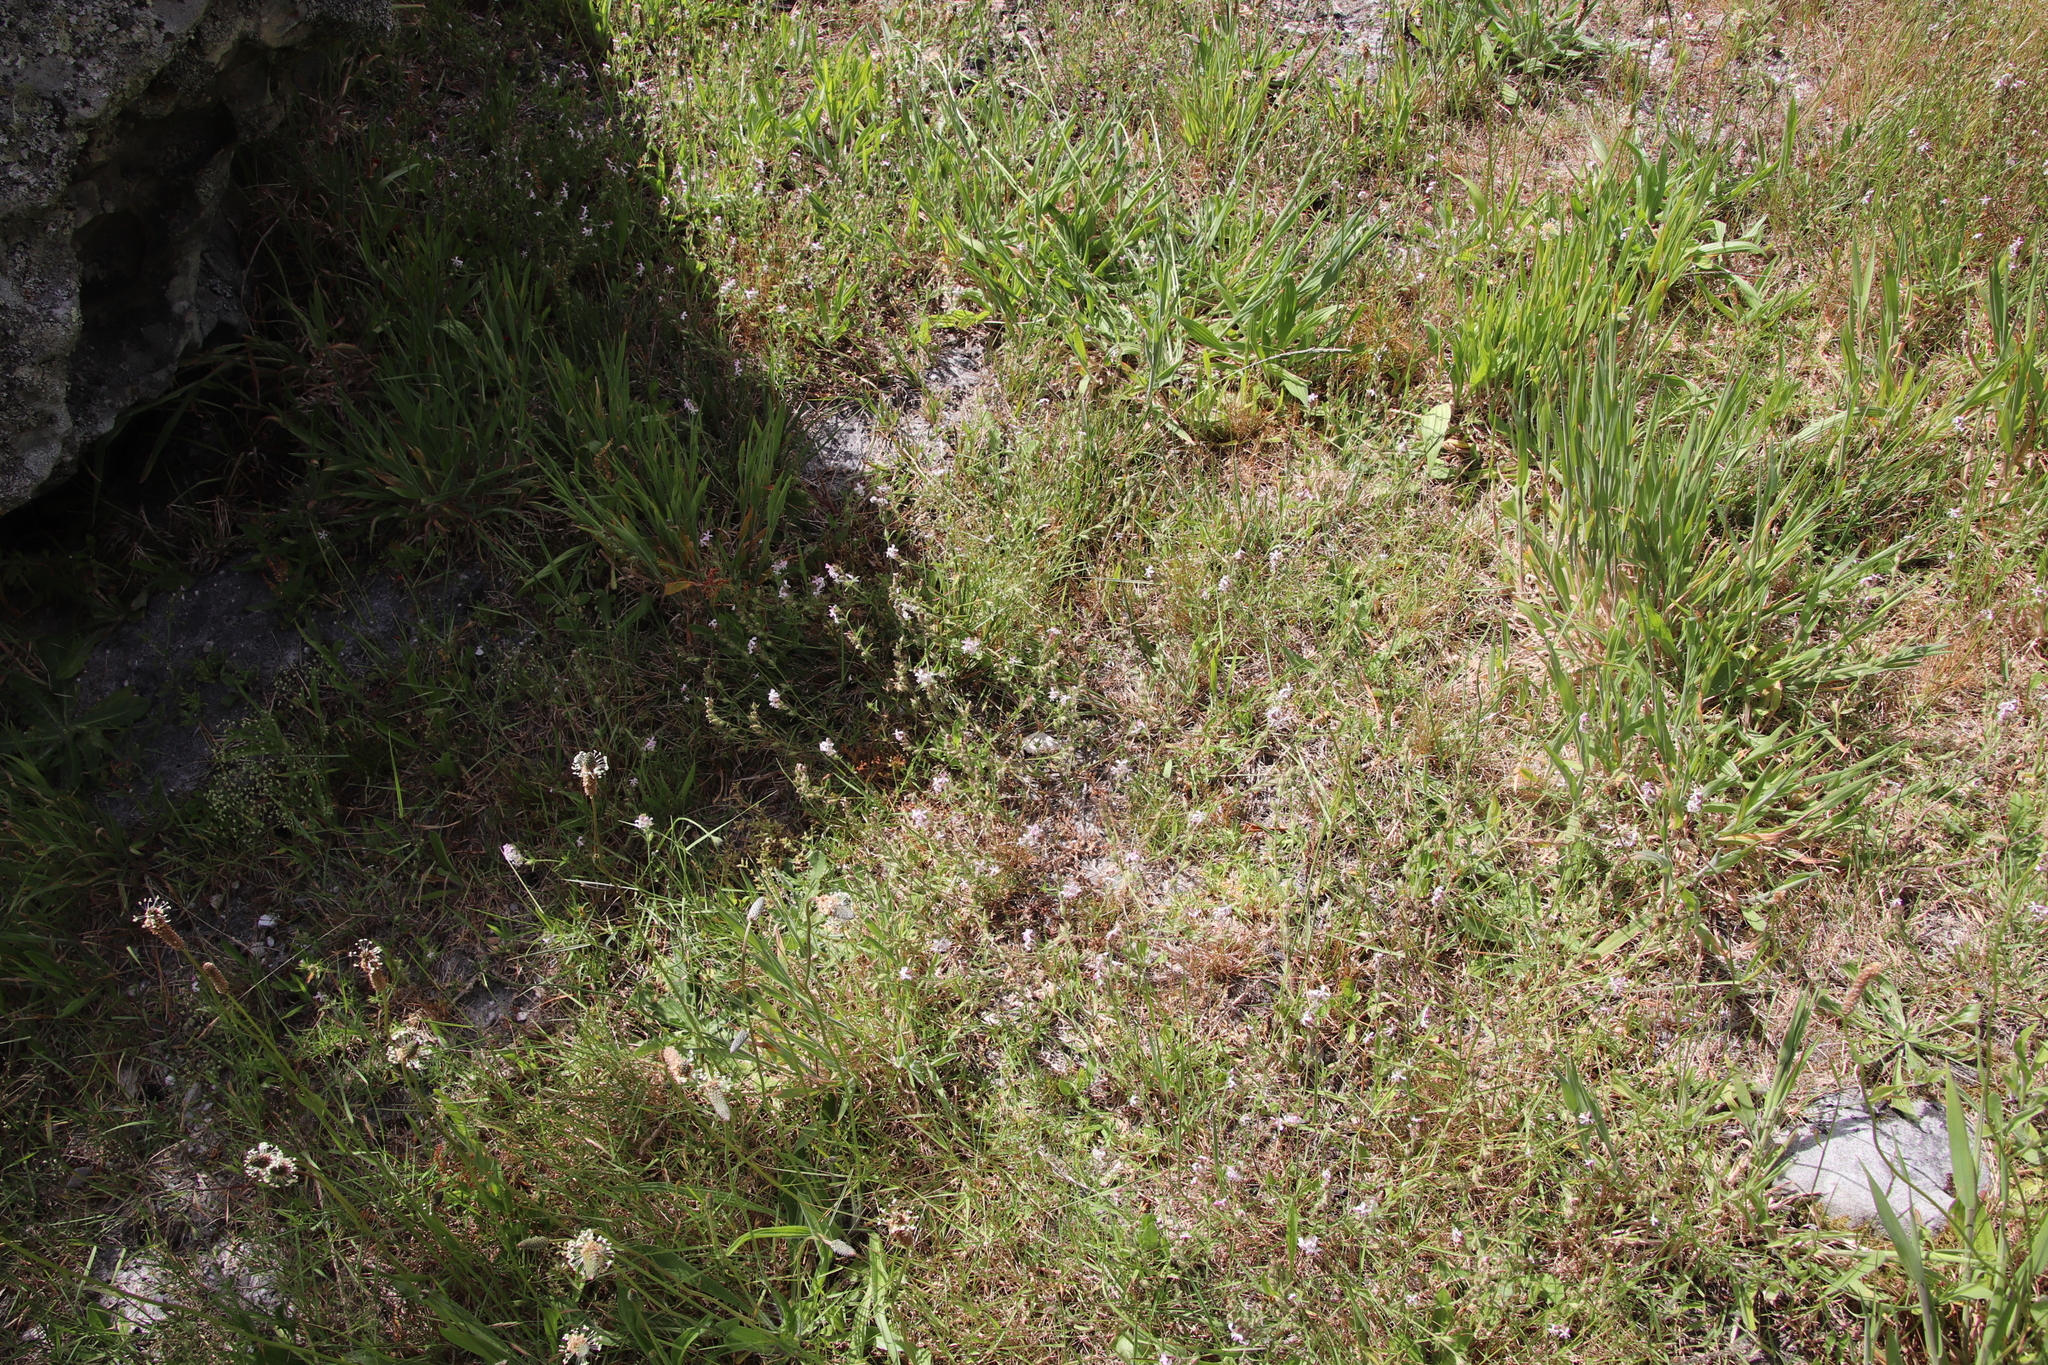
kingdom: Plantae
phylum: Tracheophyta
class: Magnoliopsida
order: Caryophyllales
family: Caryophyllaceae
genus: Silene
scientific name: Silene gallica
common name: Small-flowered catchfly
